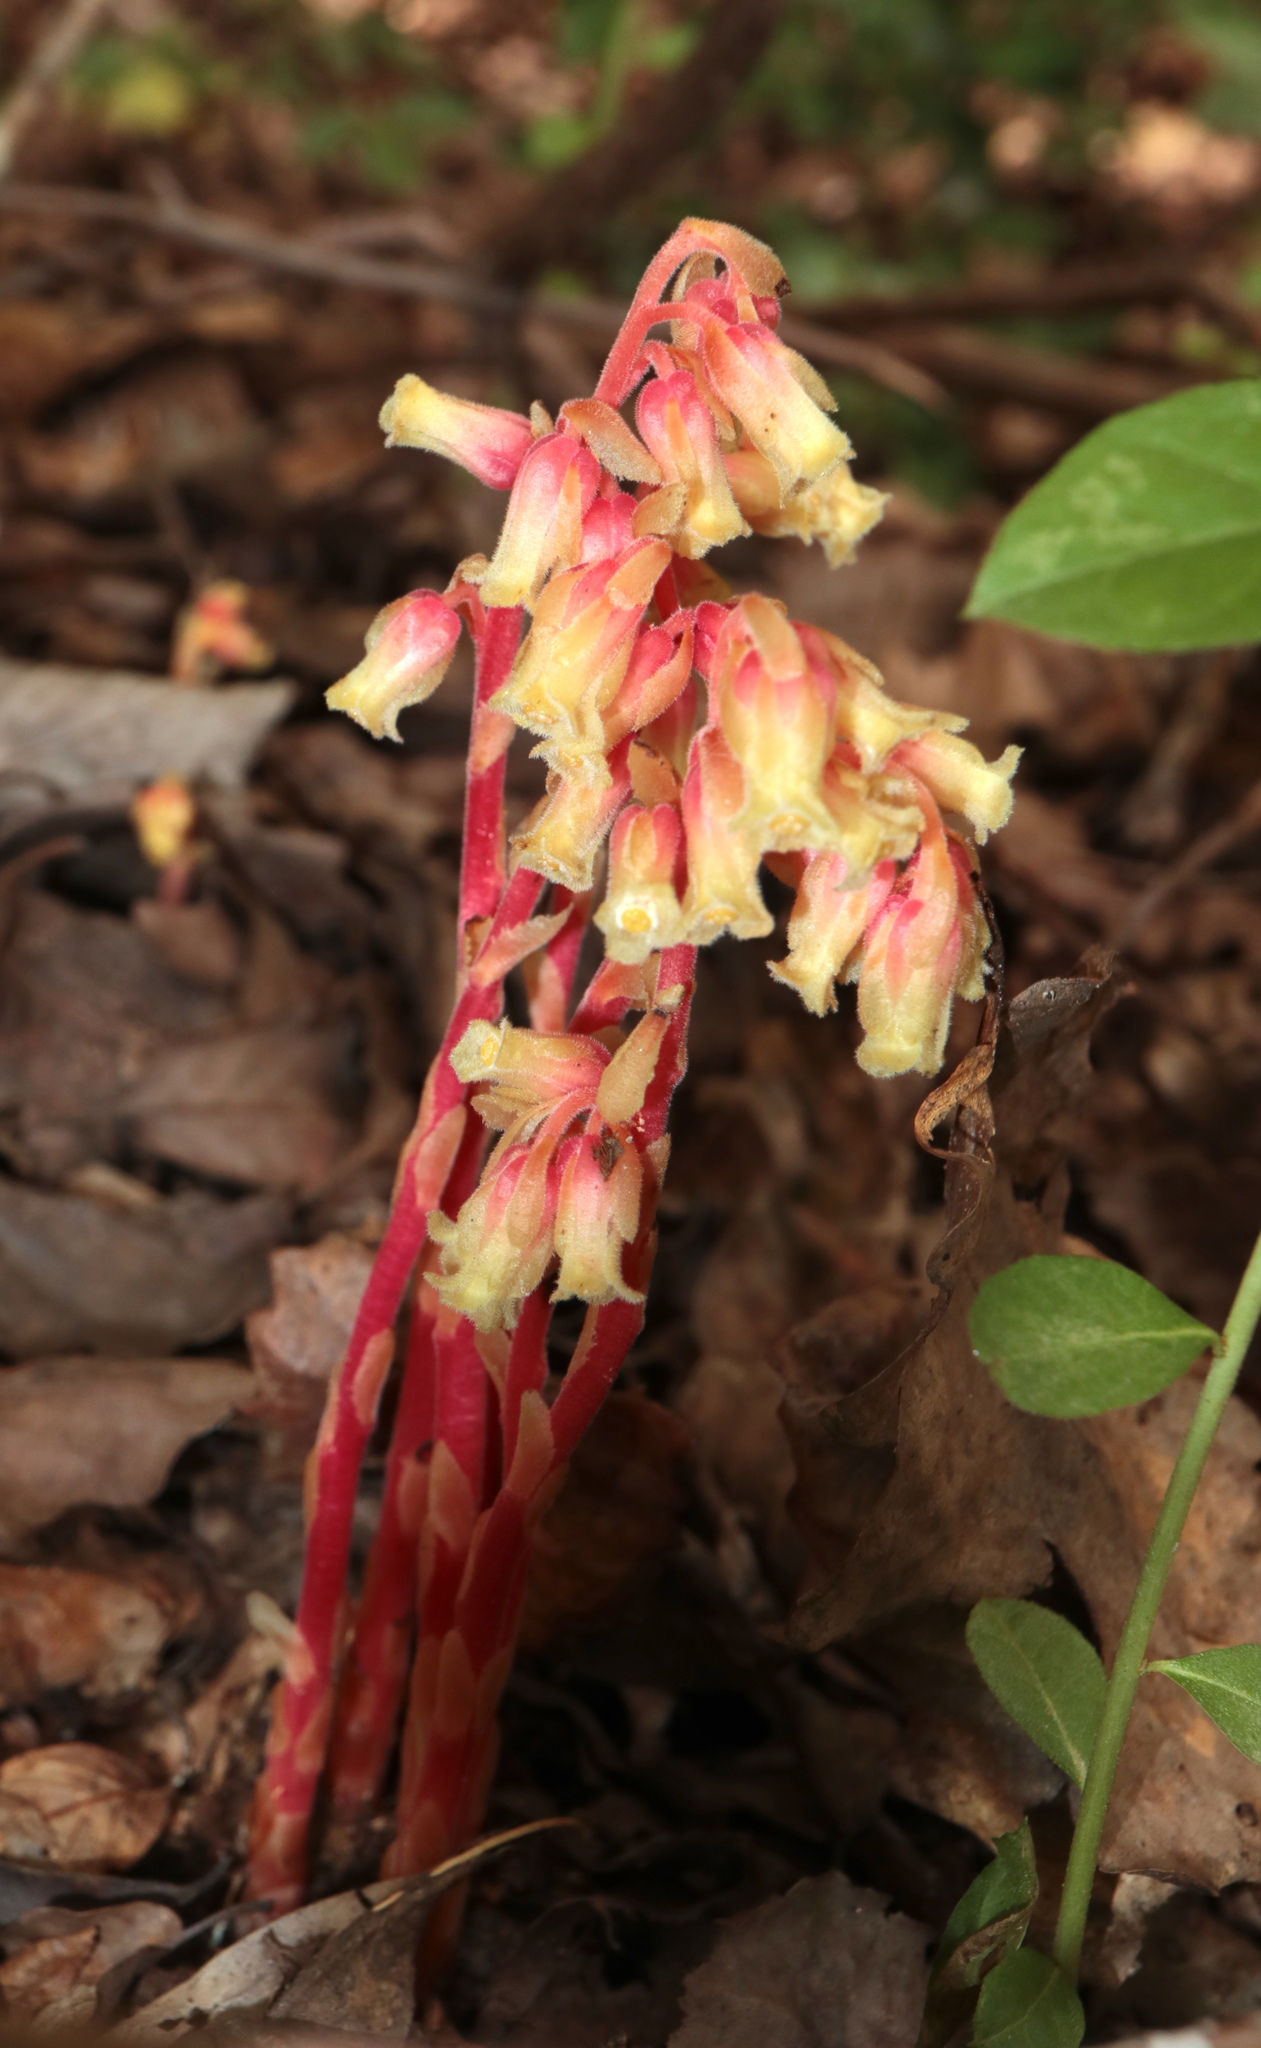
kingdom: Plantae
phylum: Tracheophyta
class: Magnoliopsida
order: Ericales
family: Ericaceae
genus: Hypopitys
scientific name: Hypopitys monotropa
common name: Yellow bird's-nest
